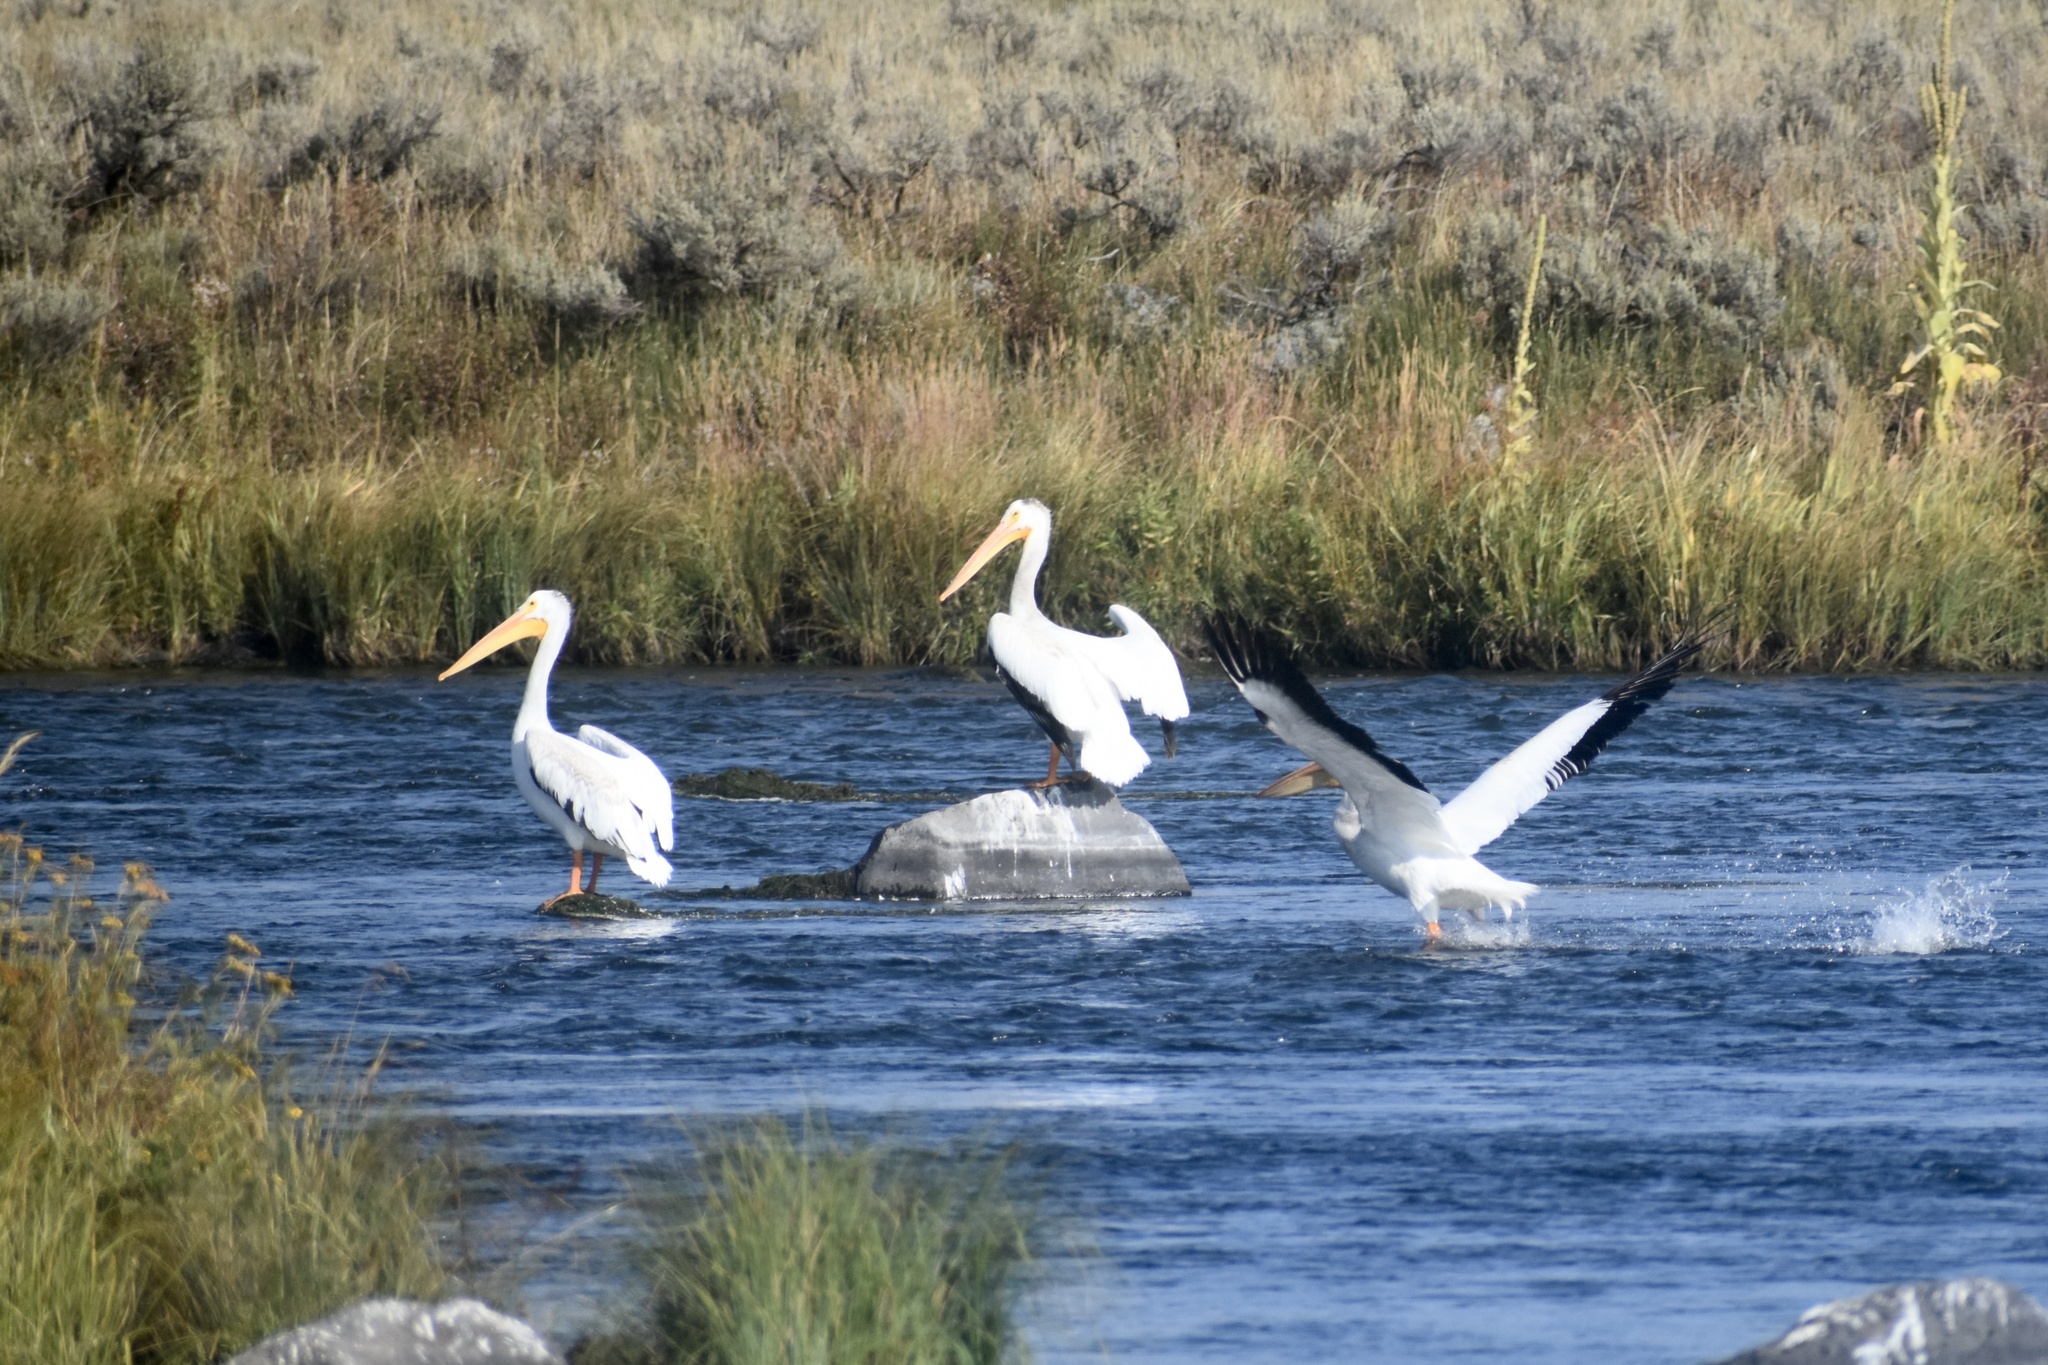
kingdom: Animalia
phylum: Chordata
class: Aves
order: Pelecaniformes
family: Pelecanidae
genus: Pelecanus
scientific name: Pelecanus erythrorhynchos
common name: American white pelican
